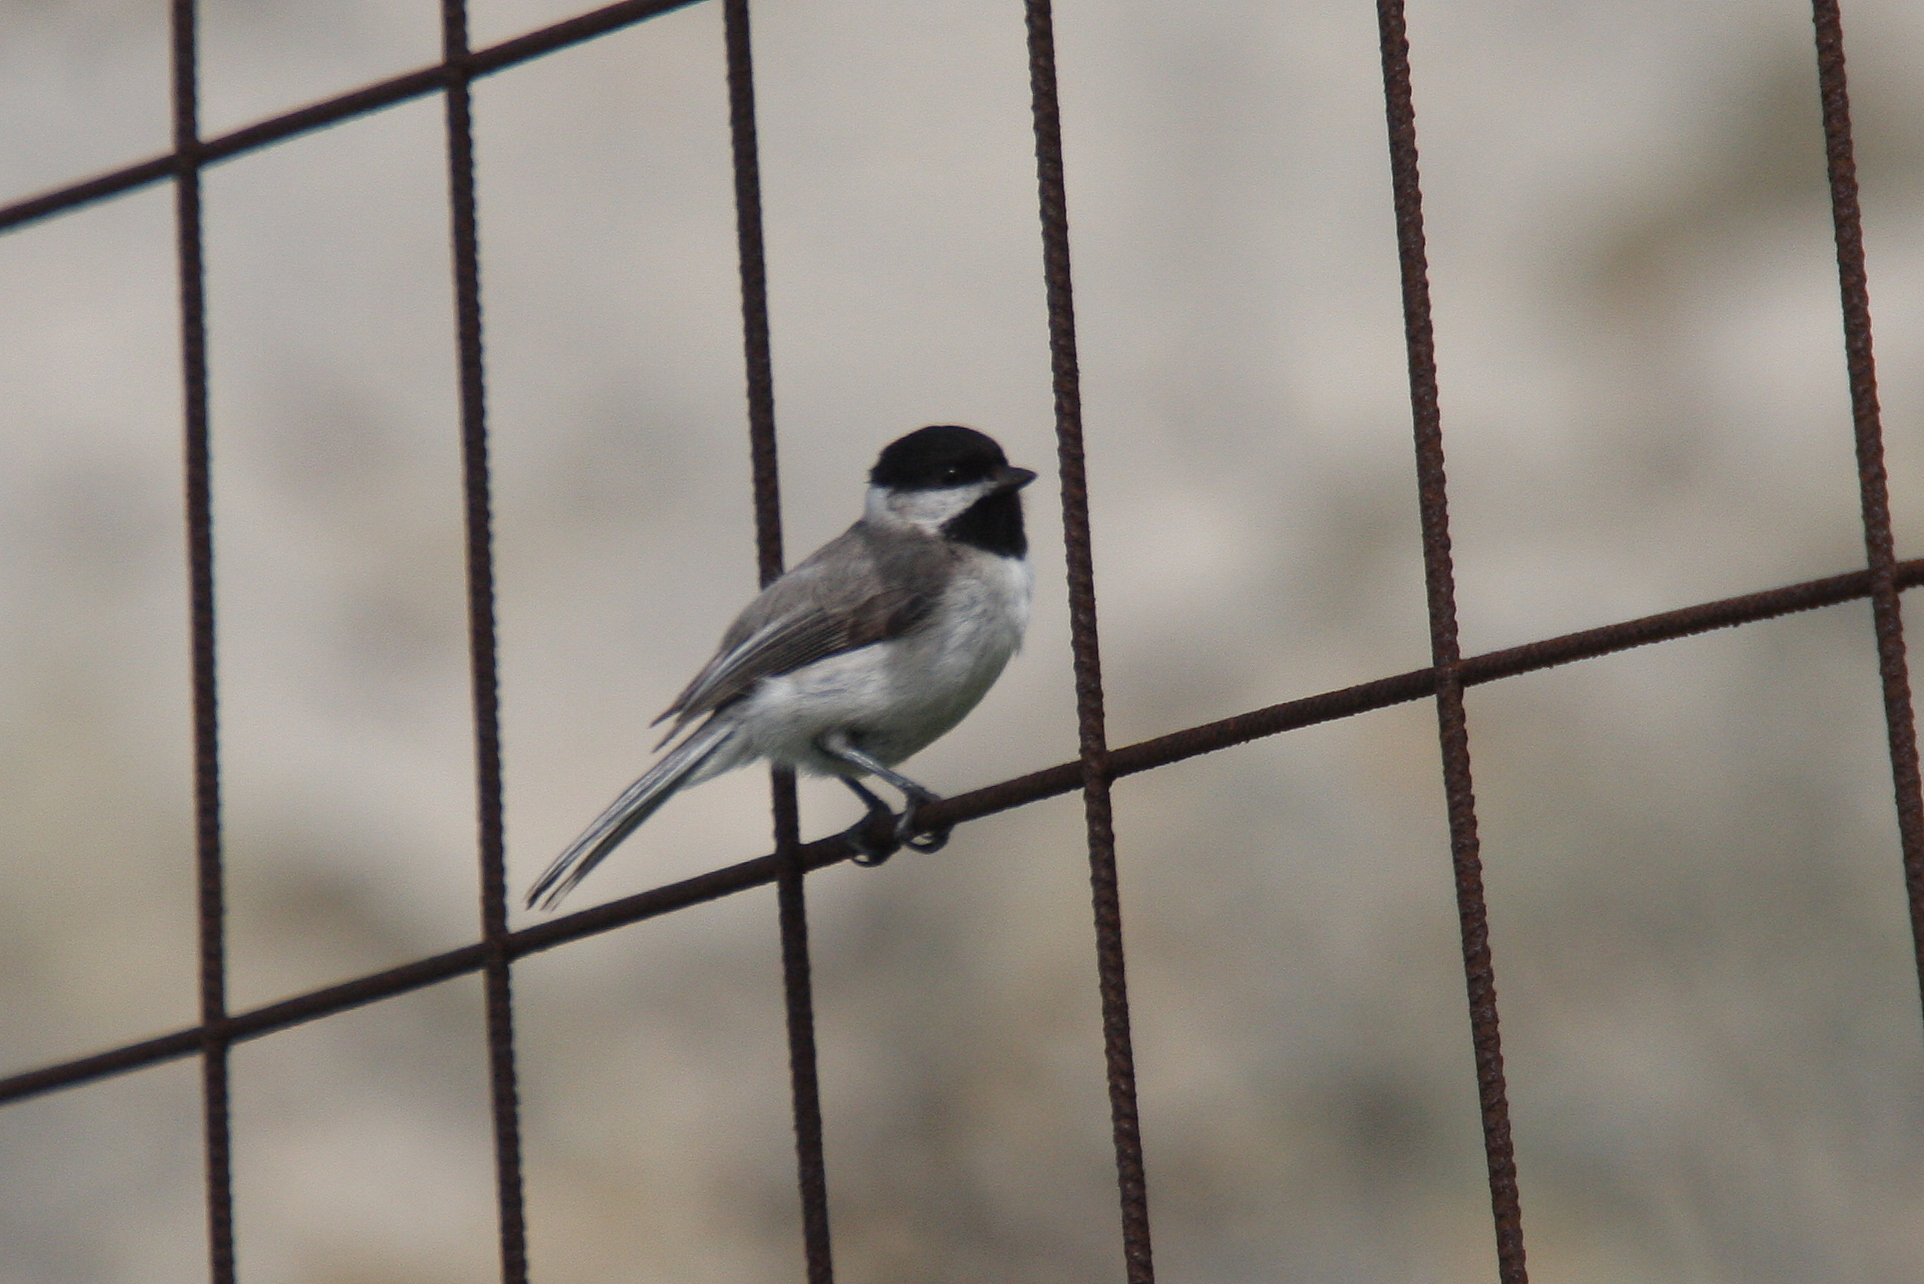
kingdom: Animalia
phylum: Chordata
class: Aves
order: Passeriformes
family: Paridae
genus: Poecile
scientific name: Poecile lugubris
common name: Sombre tit
